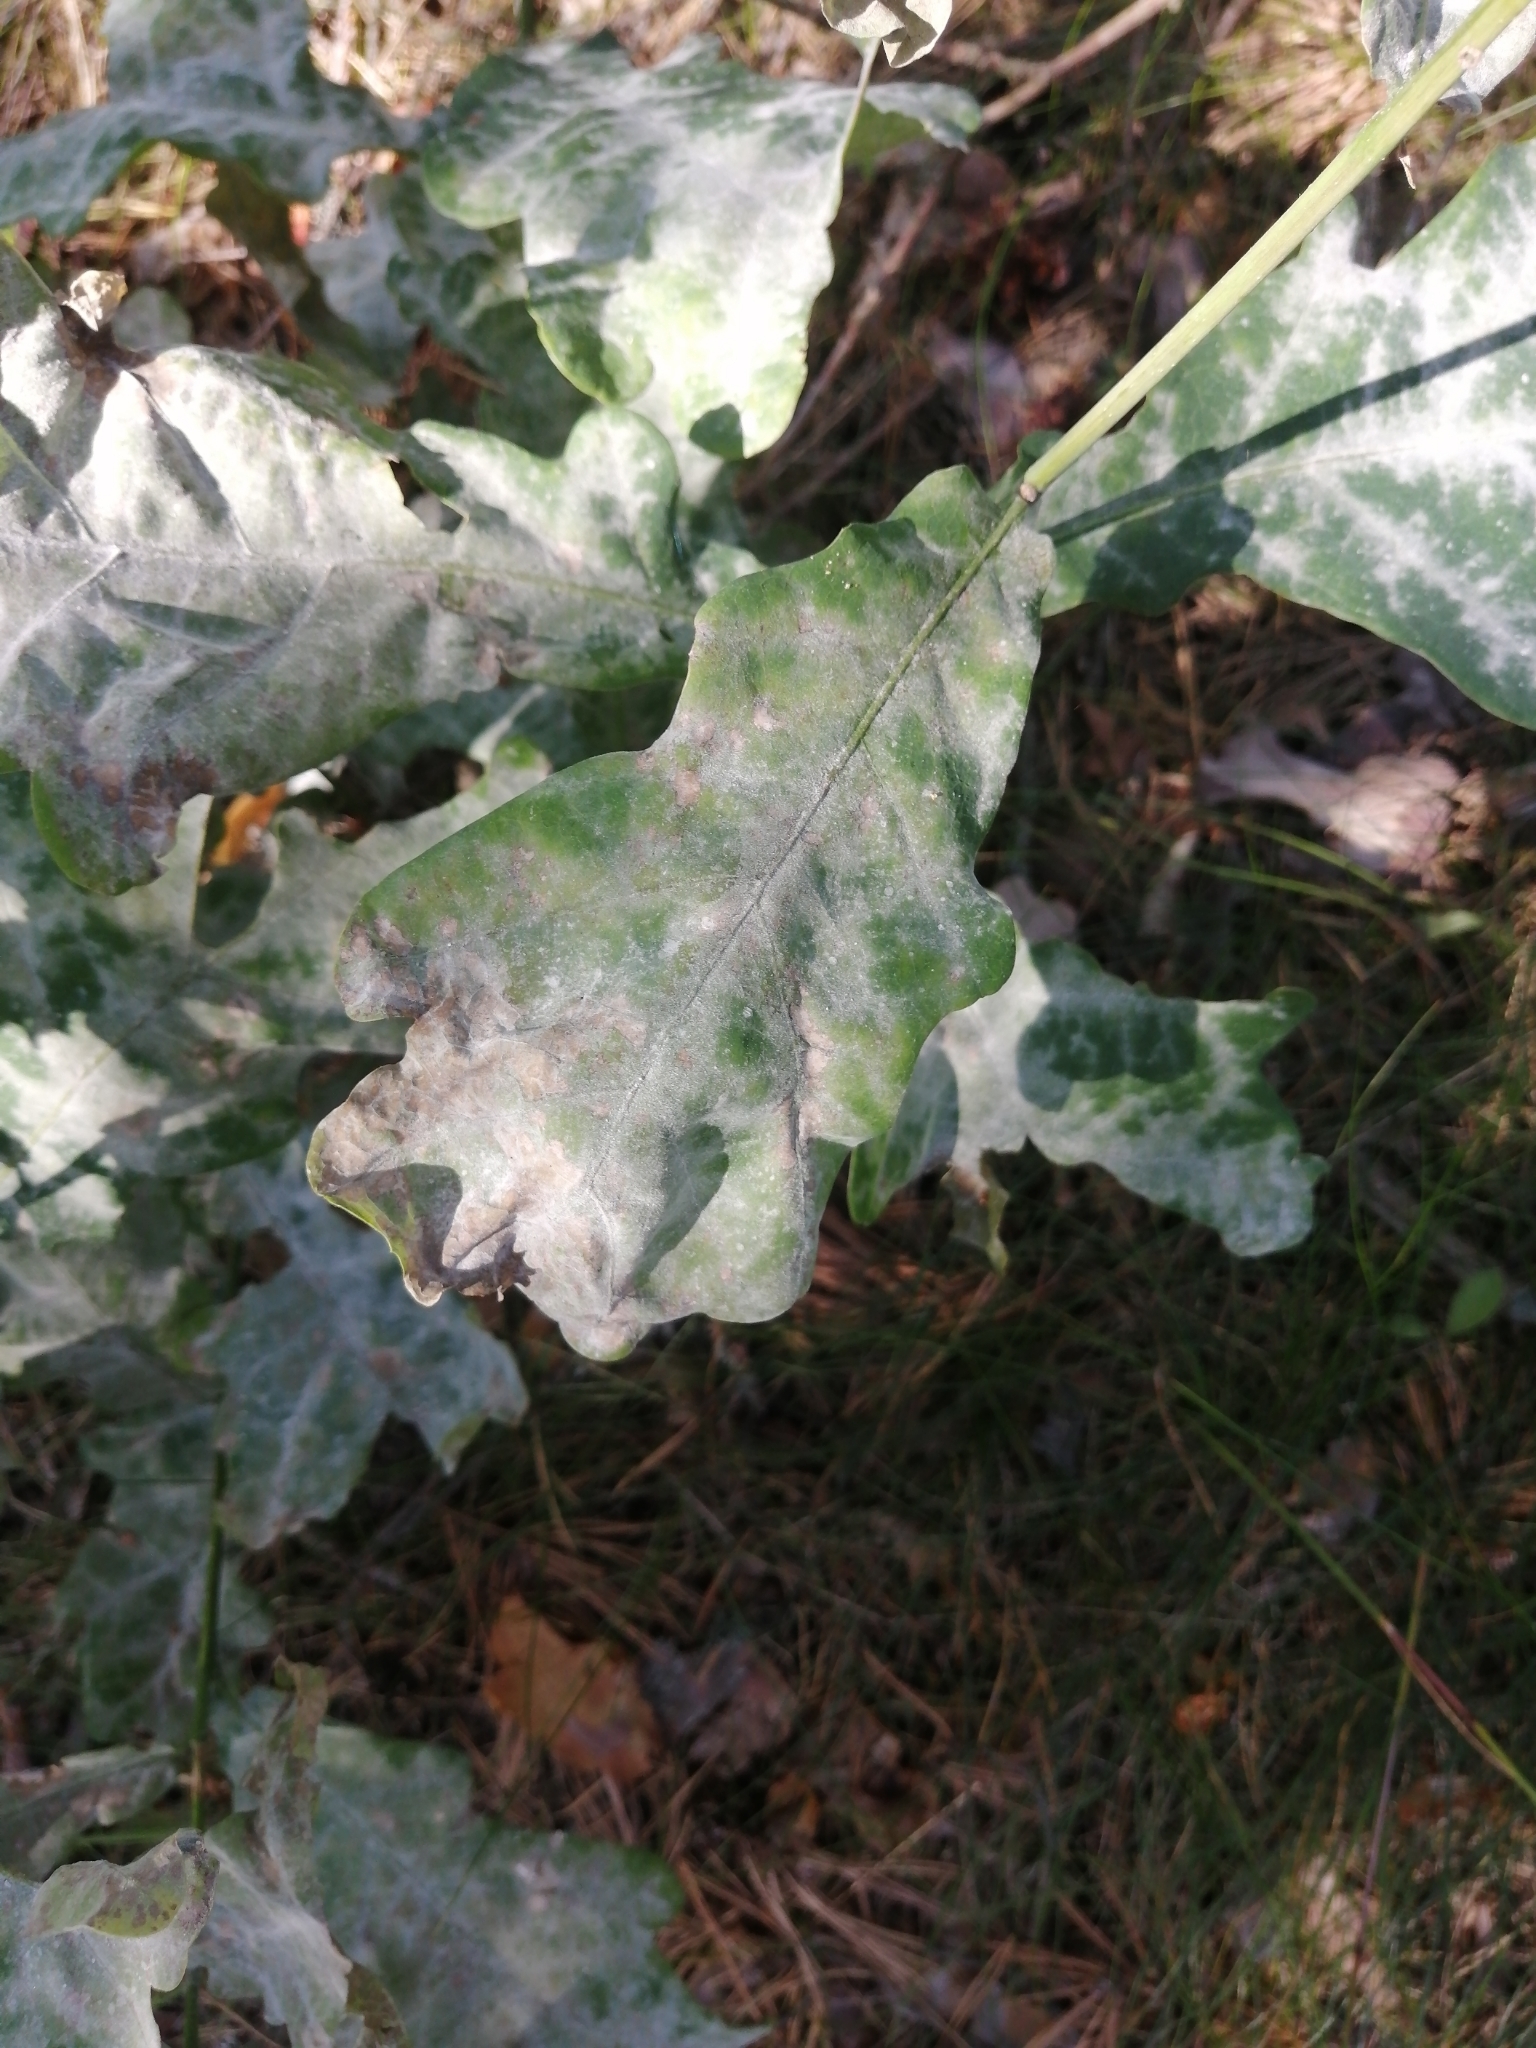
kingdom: Fungi
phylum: Ascomycota
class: Leotiomycetes
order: Helotiales
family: Erysiphaceae
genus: Erysiphe
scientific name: Erysiphe alphitoides
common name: Oak mildew
